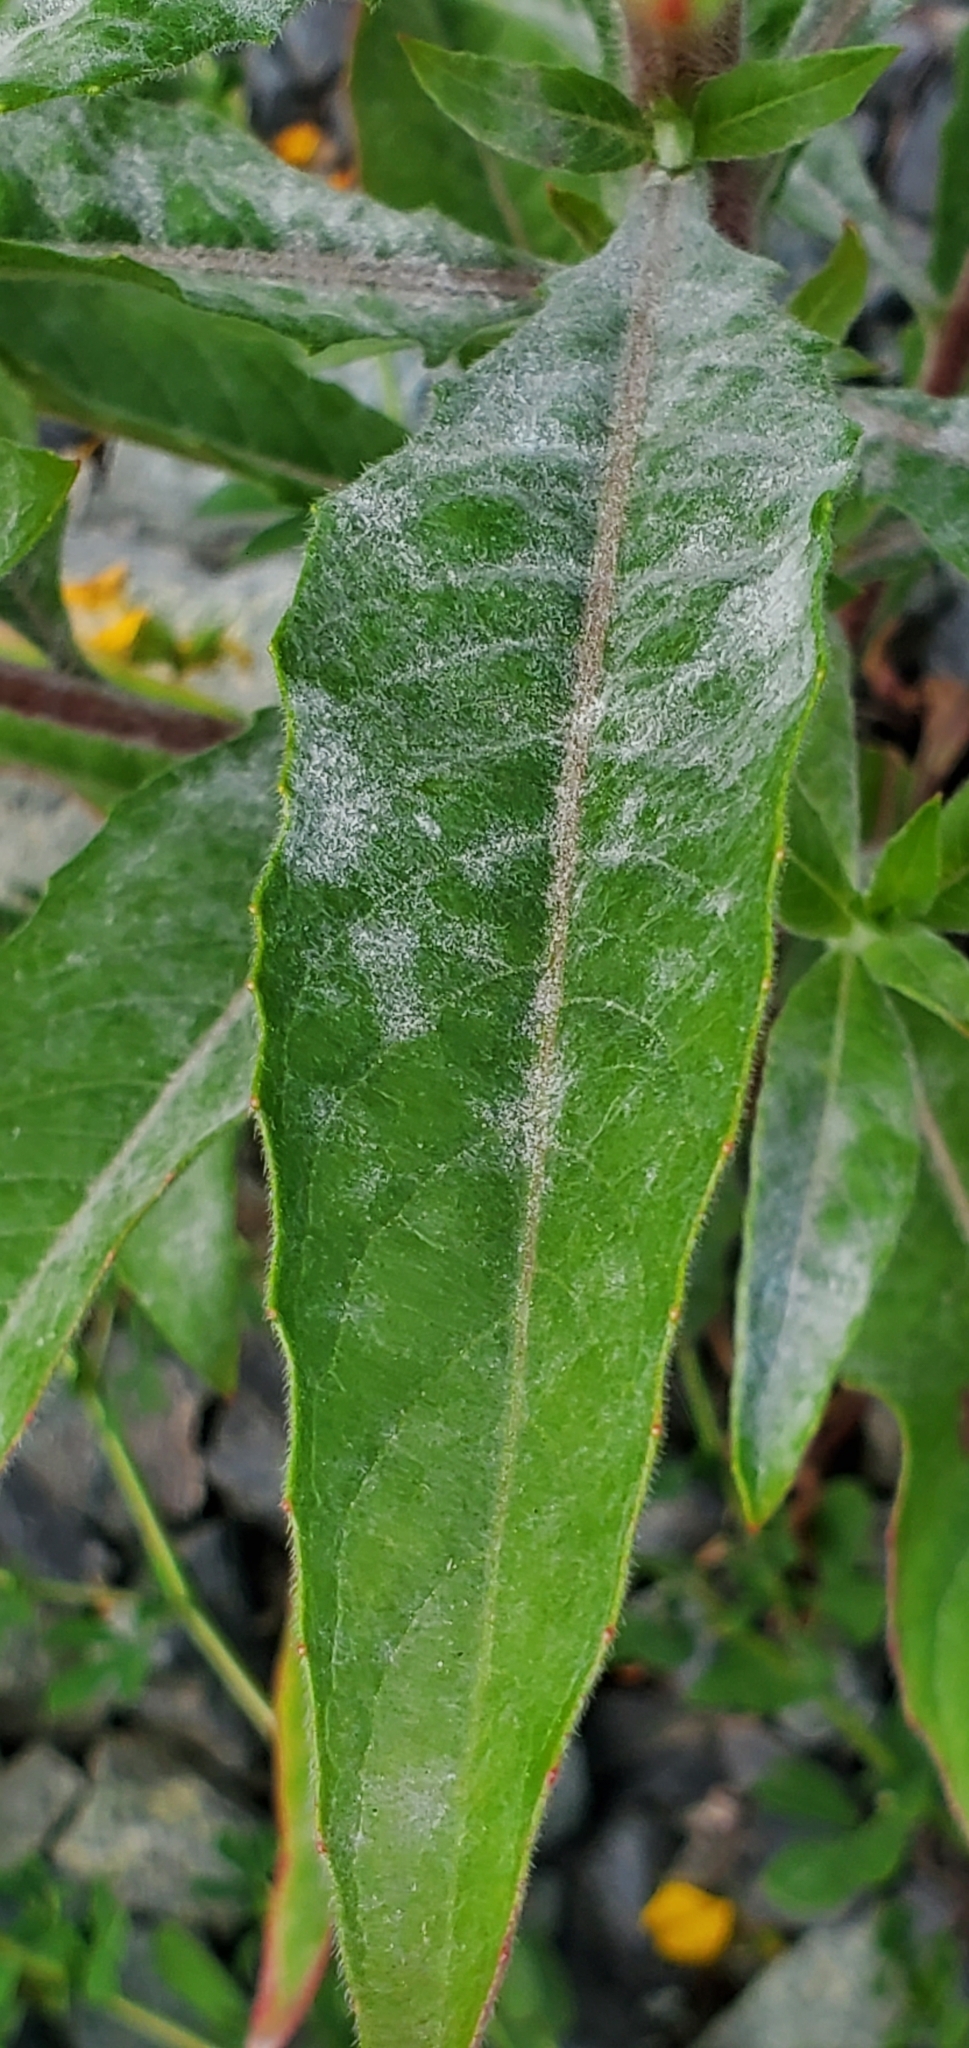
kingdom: Fungi
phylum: Ascomycota
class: Leotiomycetes
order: Helotiales
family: Erysiphaceae
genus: Erysiphe
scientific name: Erysiphe howeana
